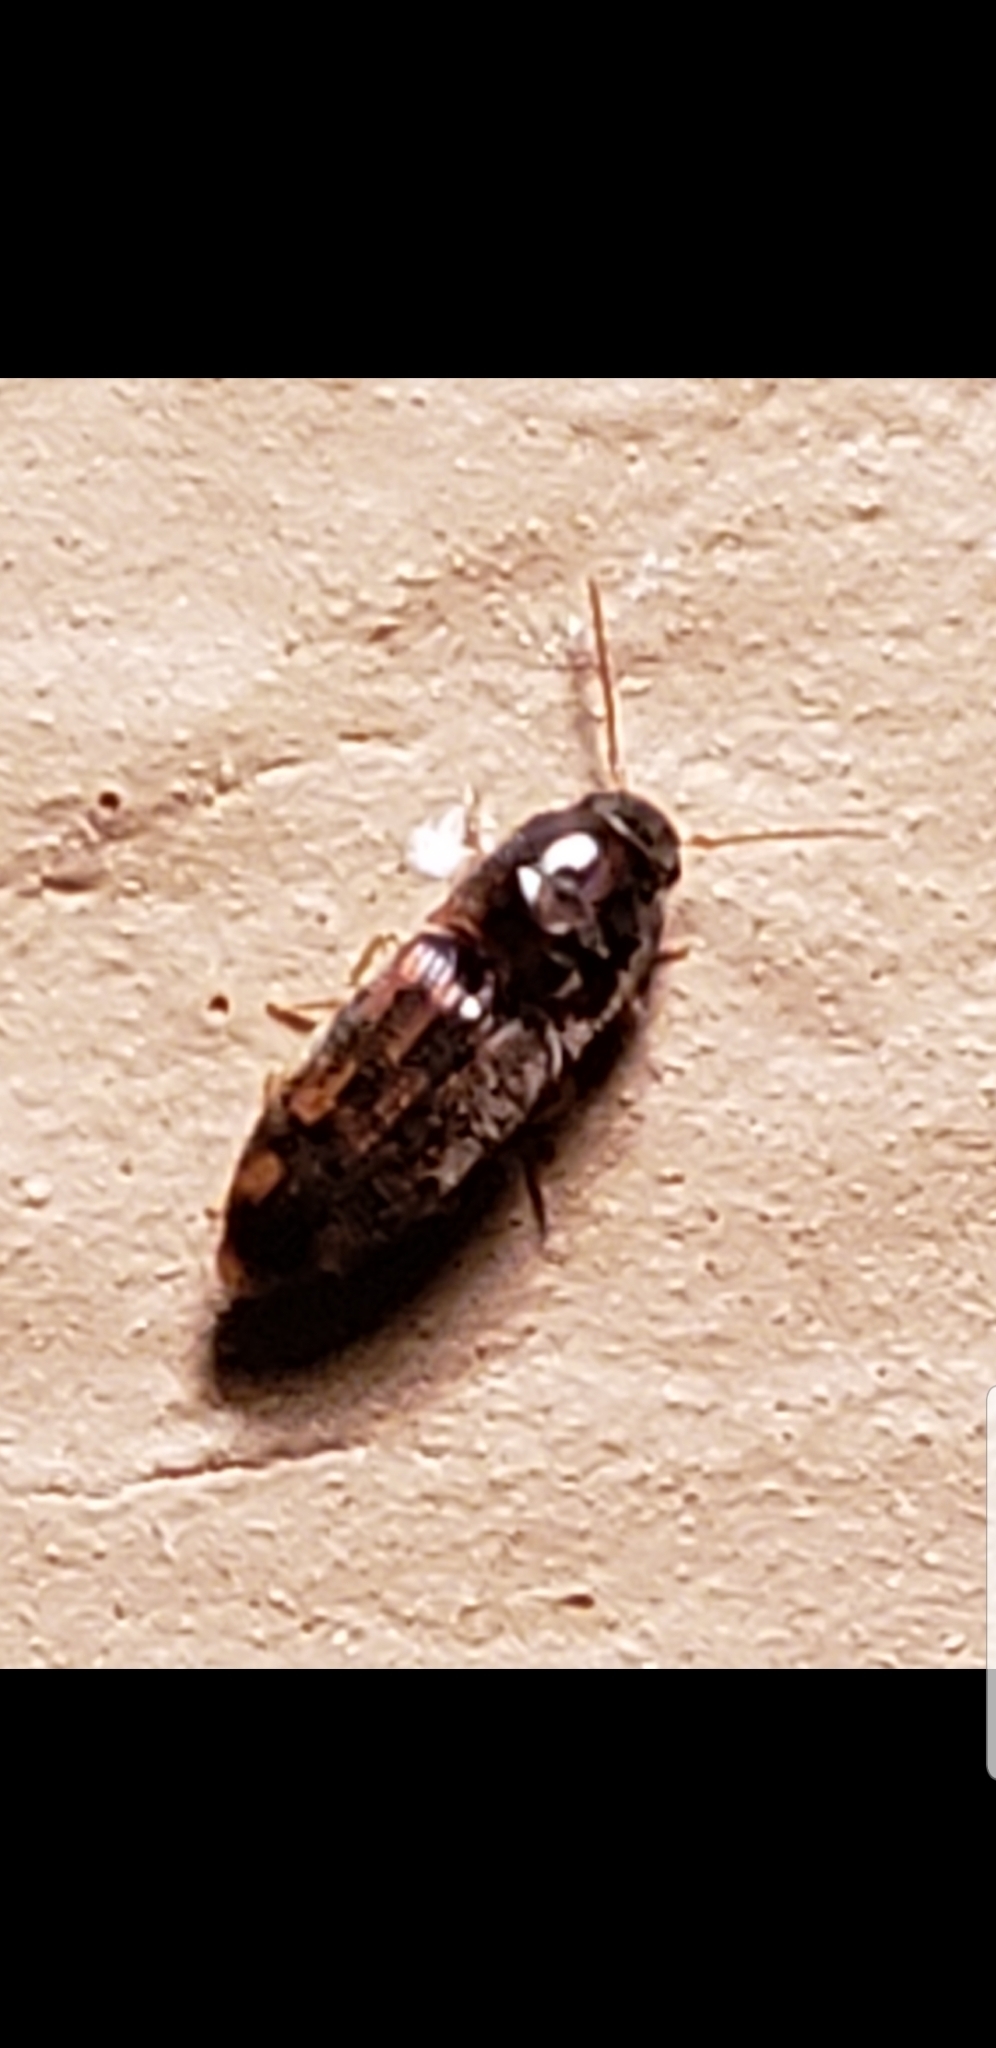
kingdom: Animalia
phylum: Arthropoda
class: Insecta
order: Coleoptera
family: Elateridae
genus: Monocrepidius
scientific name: Monocrepidius bellus
